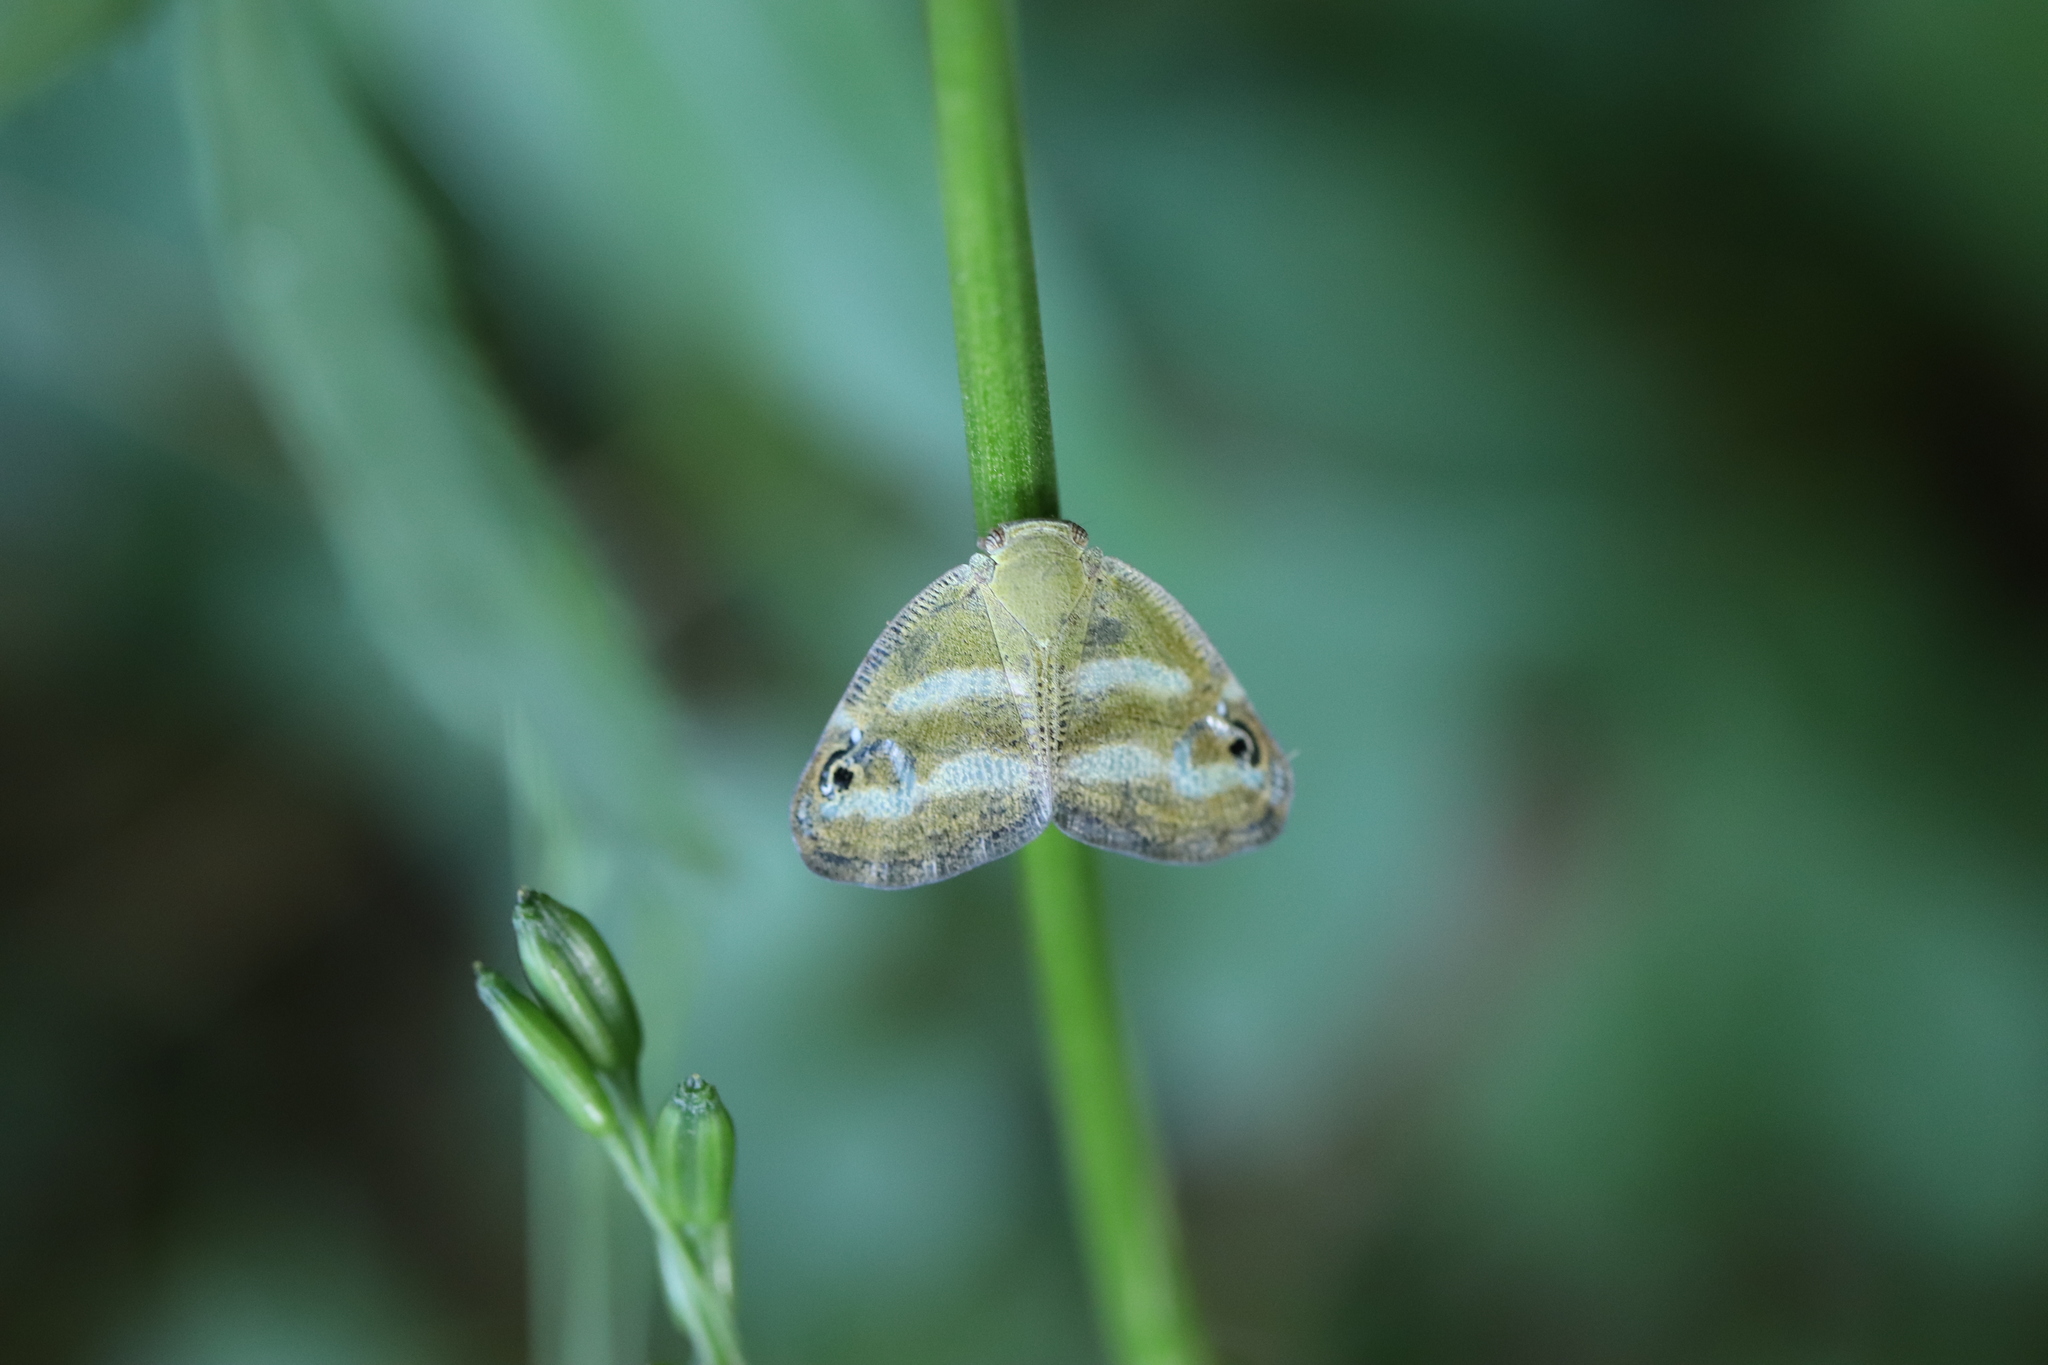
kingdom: Animalia
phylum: Arthropoda
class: Insecta
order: Hemiptera
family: Ricaniidae
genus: Orosanga
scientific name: Orosanga japonica
